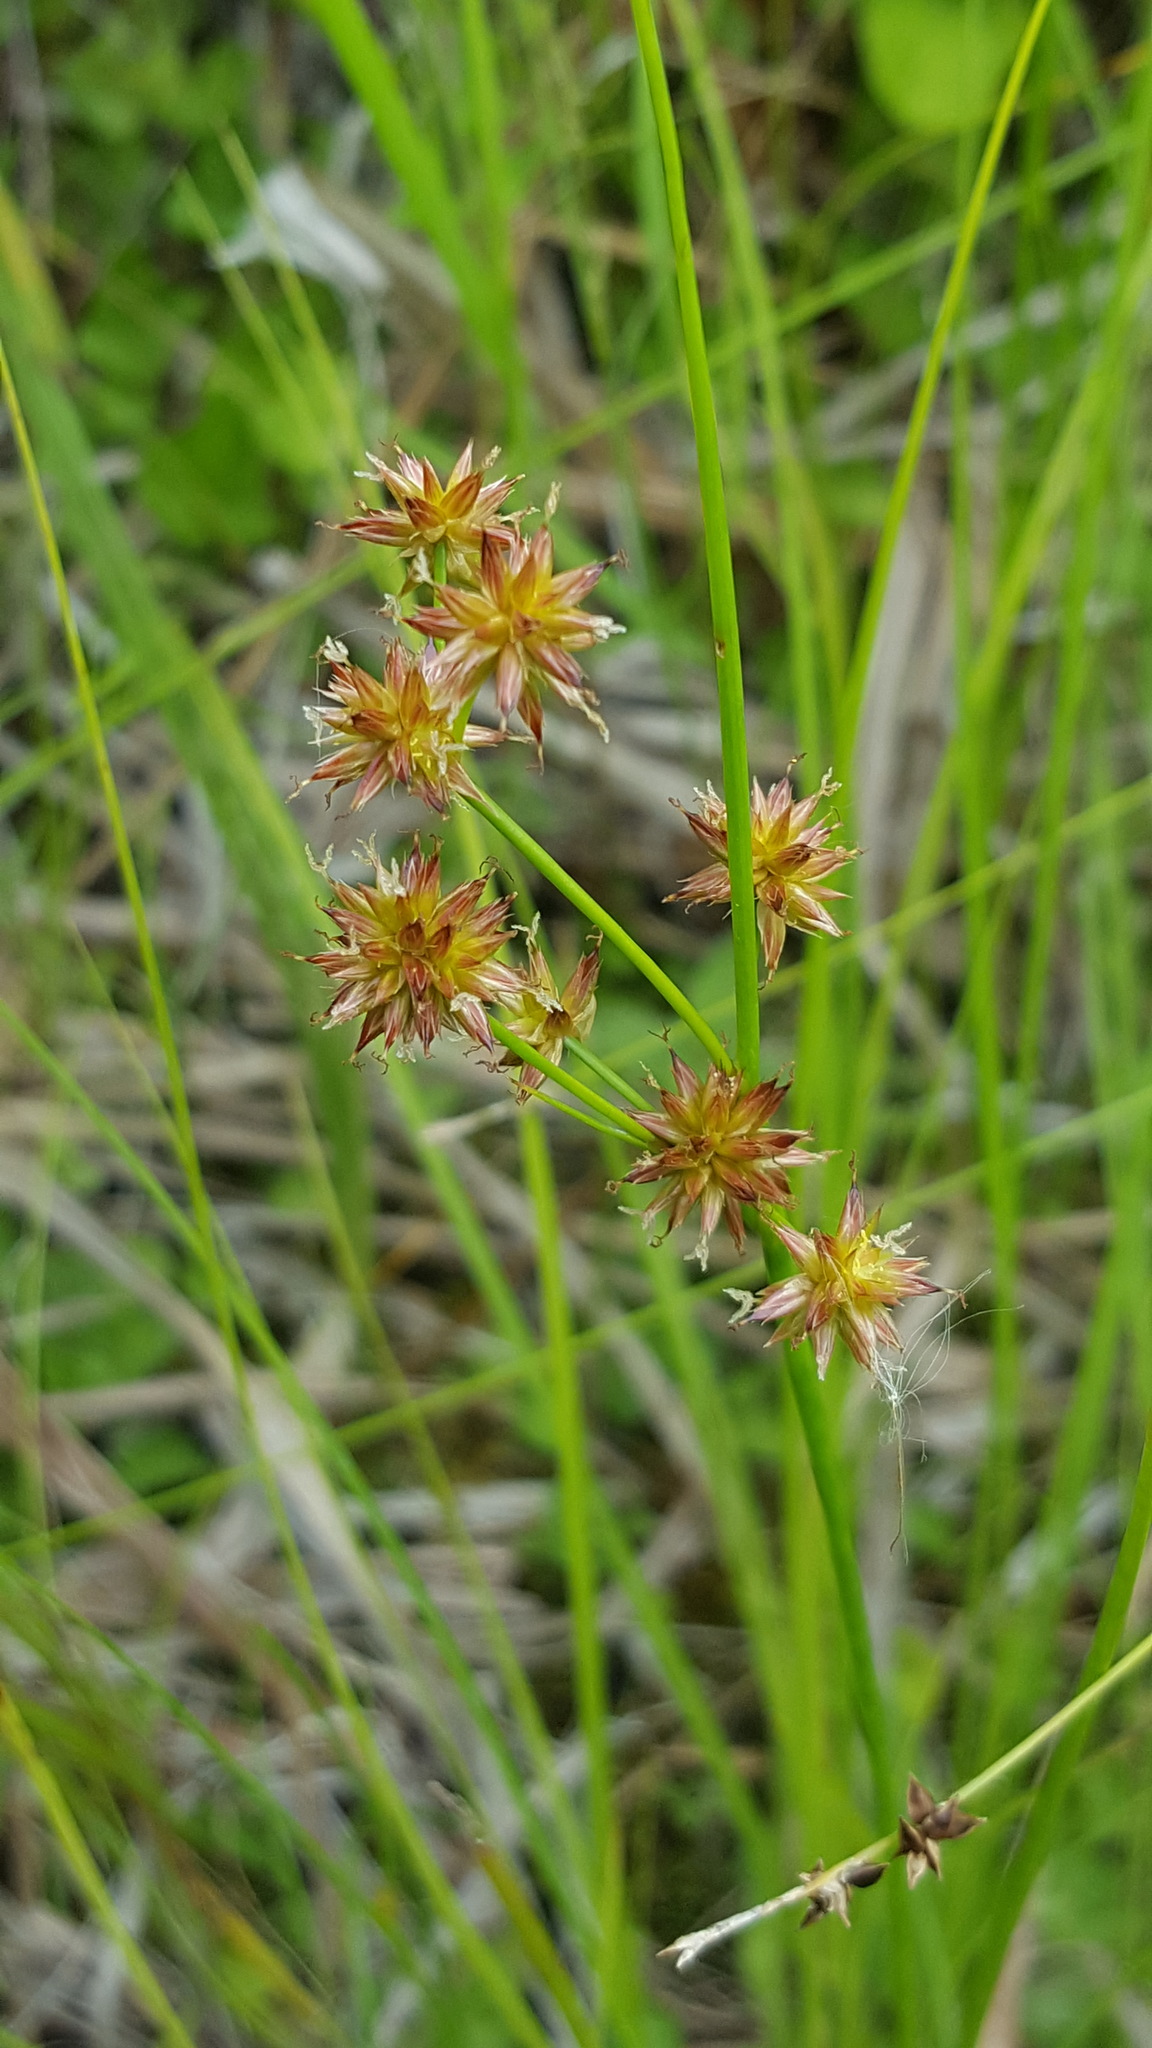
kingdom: Plantae
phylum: Tracheophyta
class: Liliopsida
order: Poales
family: Juncaceae
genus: Juncus
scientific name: Juncus nodosus
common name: Knotted rush
